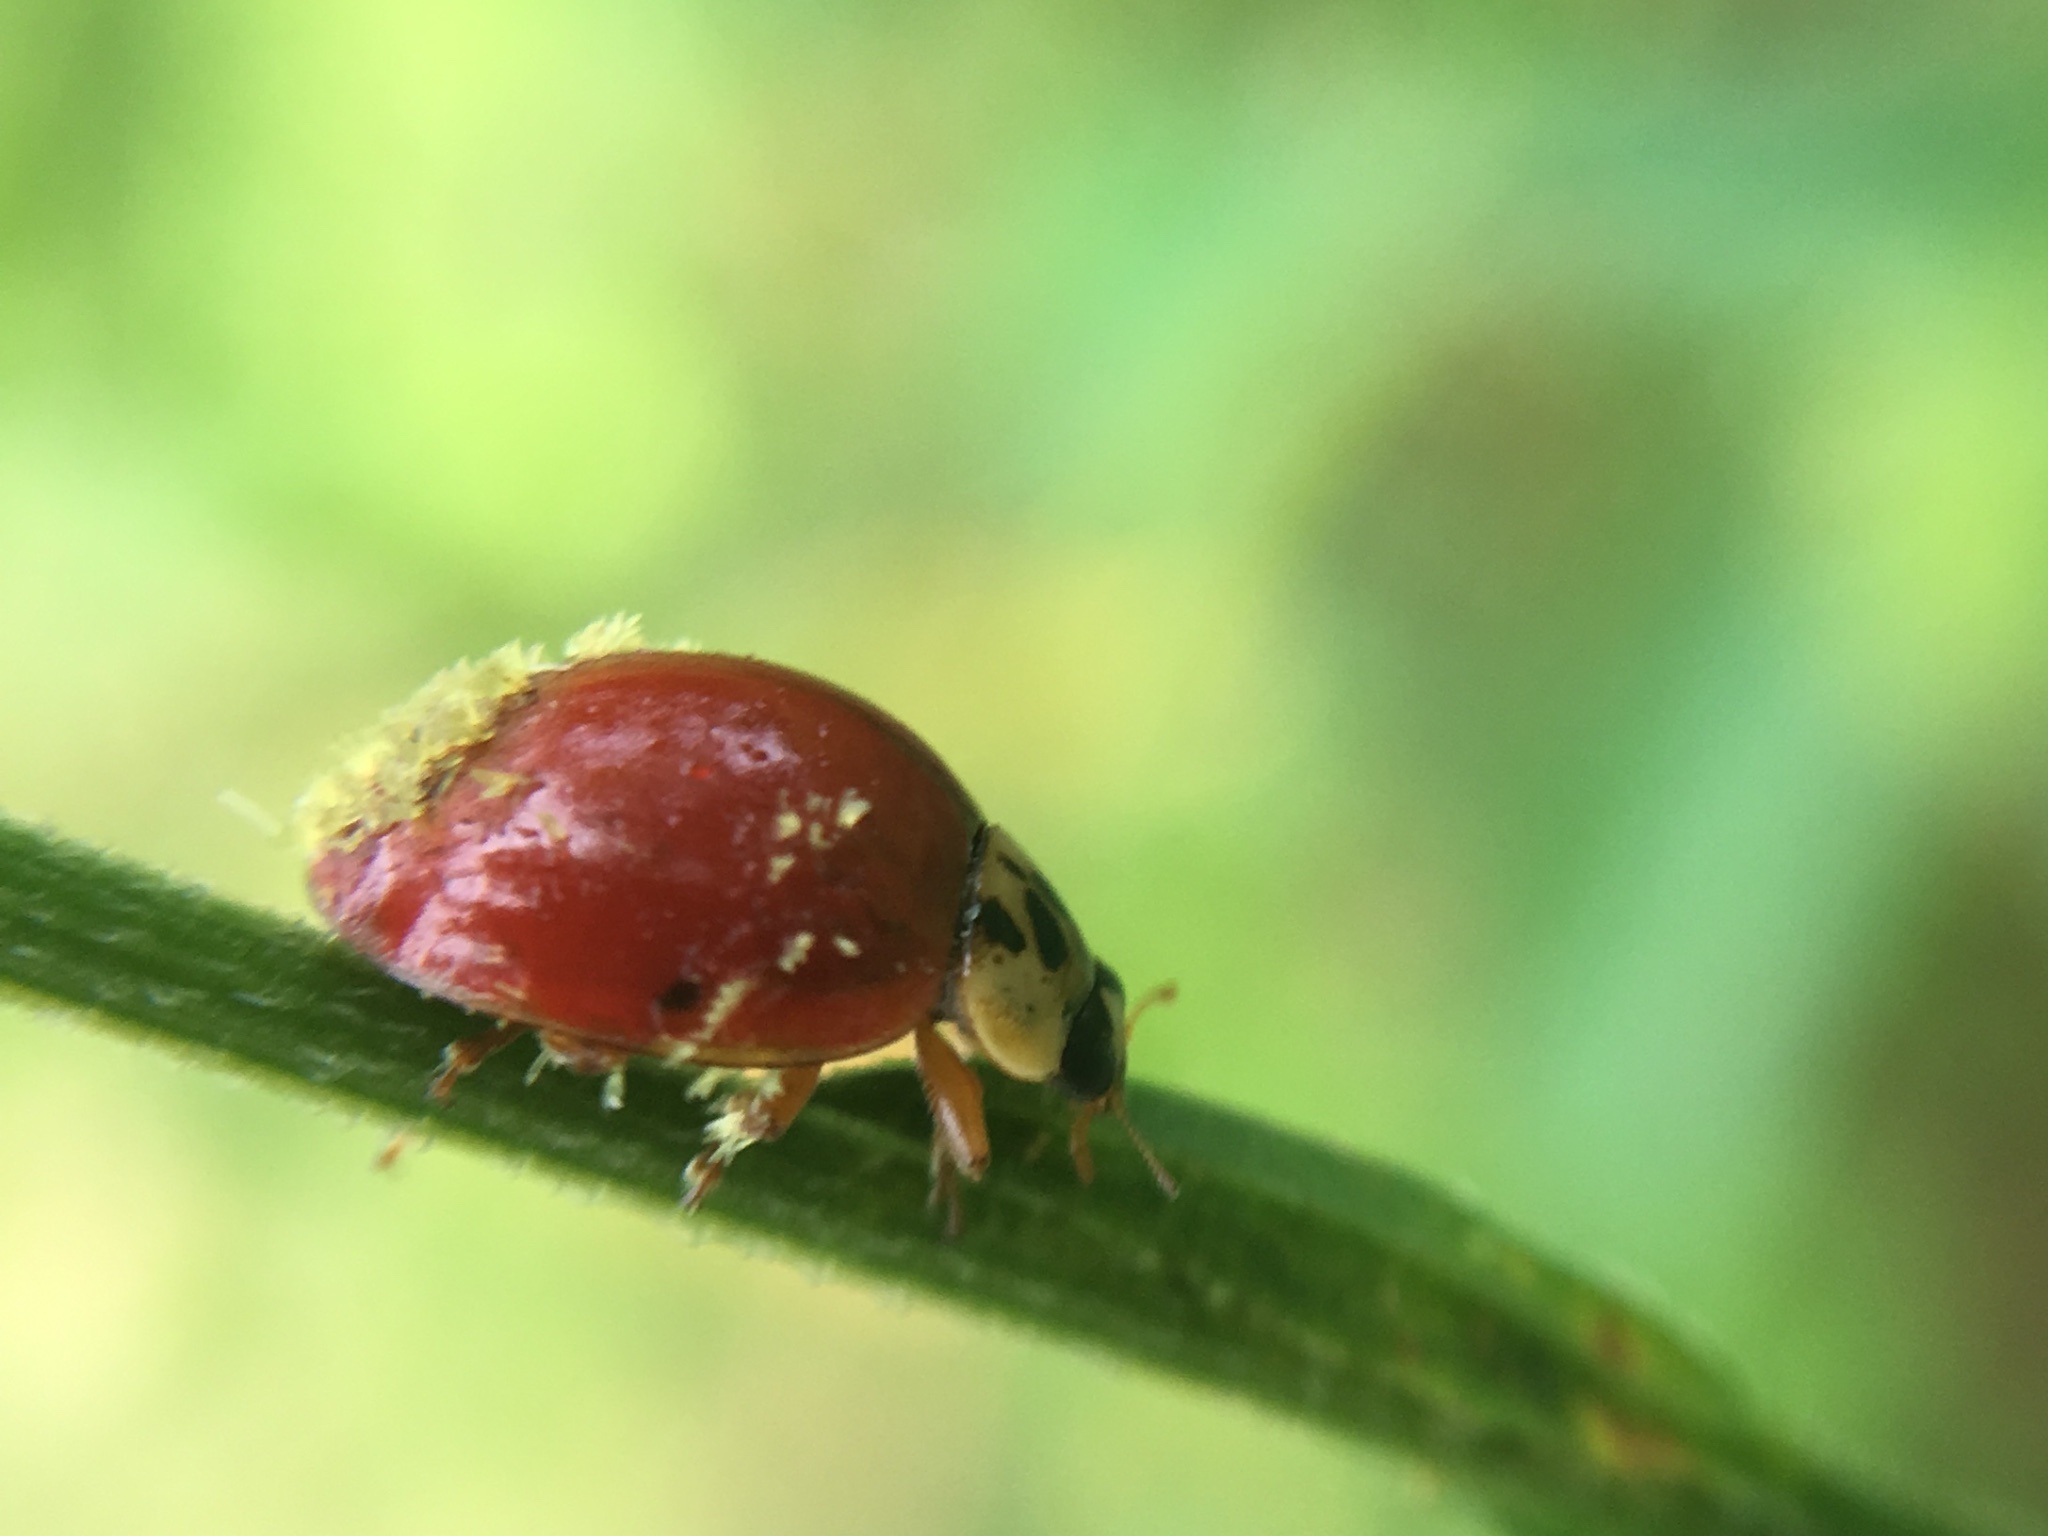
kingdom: Animalia
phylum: Arthropoda
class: Insecta
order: Coleoptera
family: Coccinellidae
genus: Harmonia
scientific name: Harmonia axyridis
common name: Harlequin ladybird
